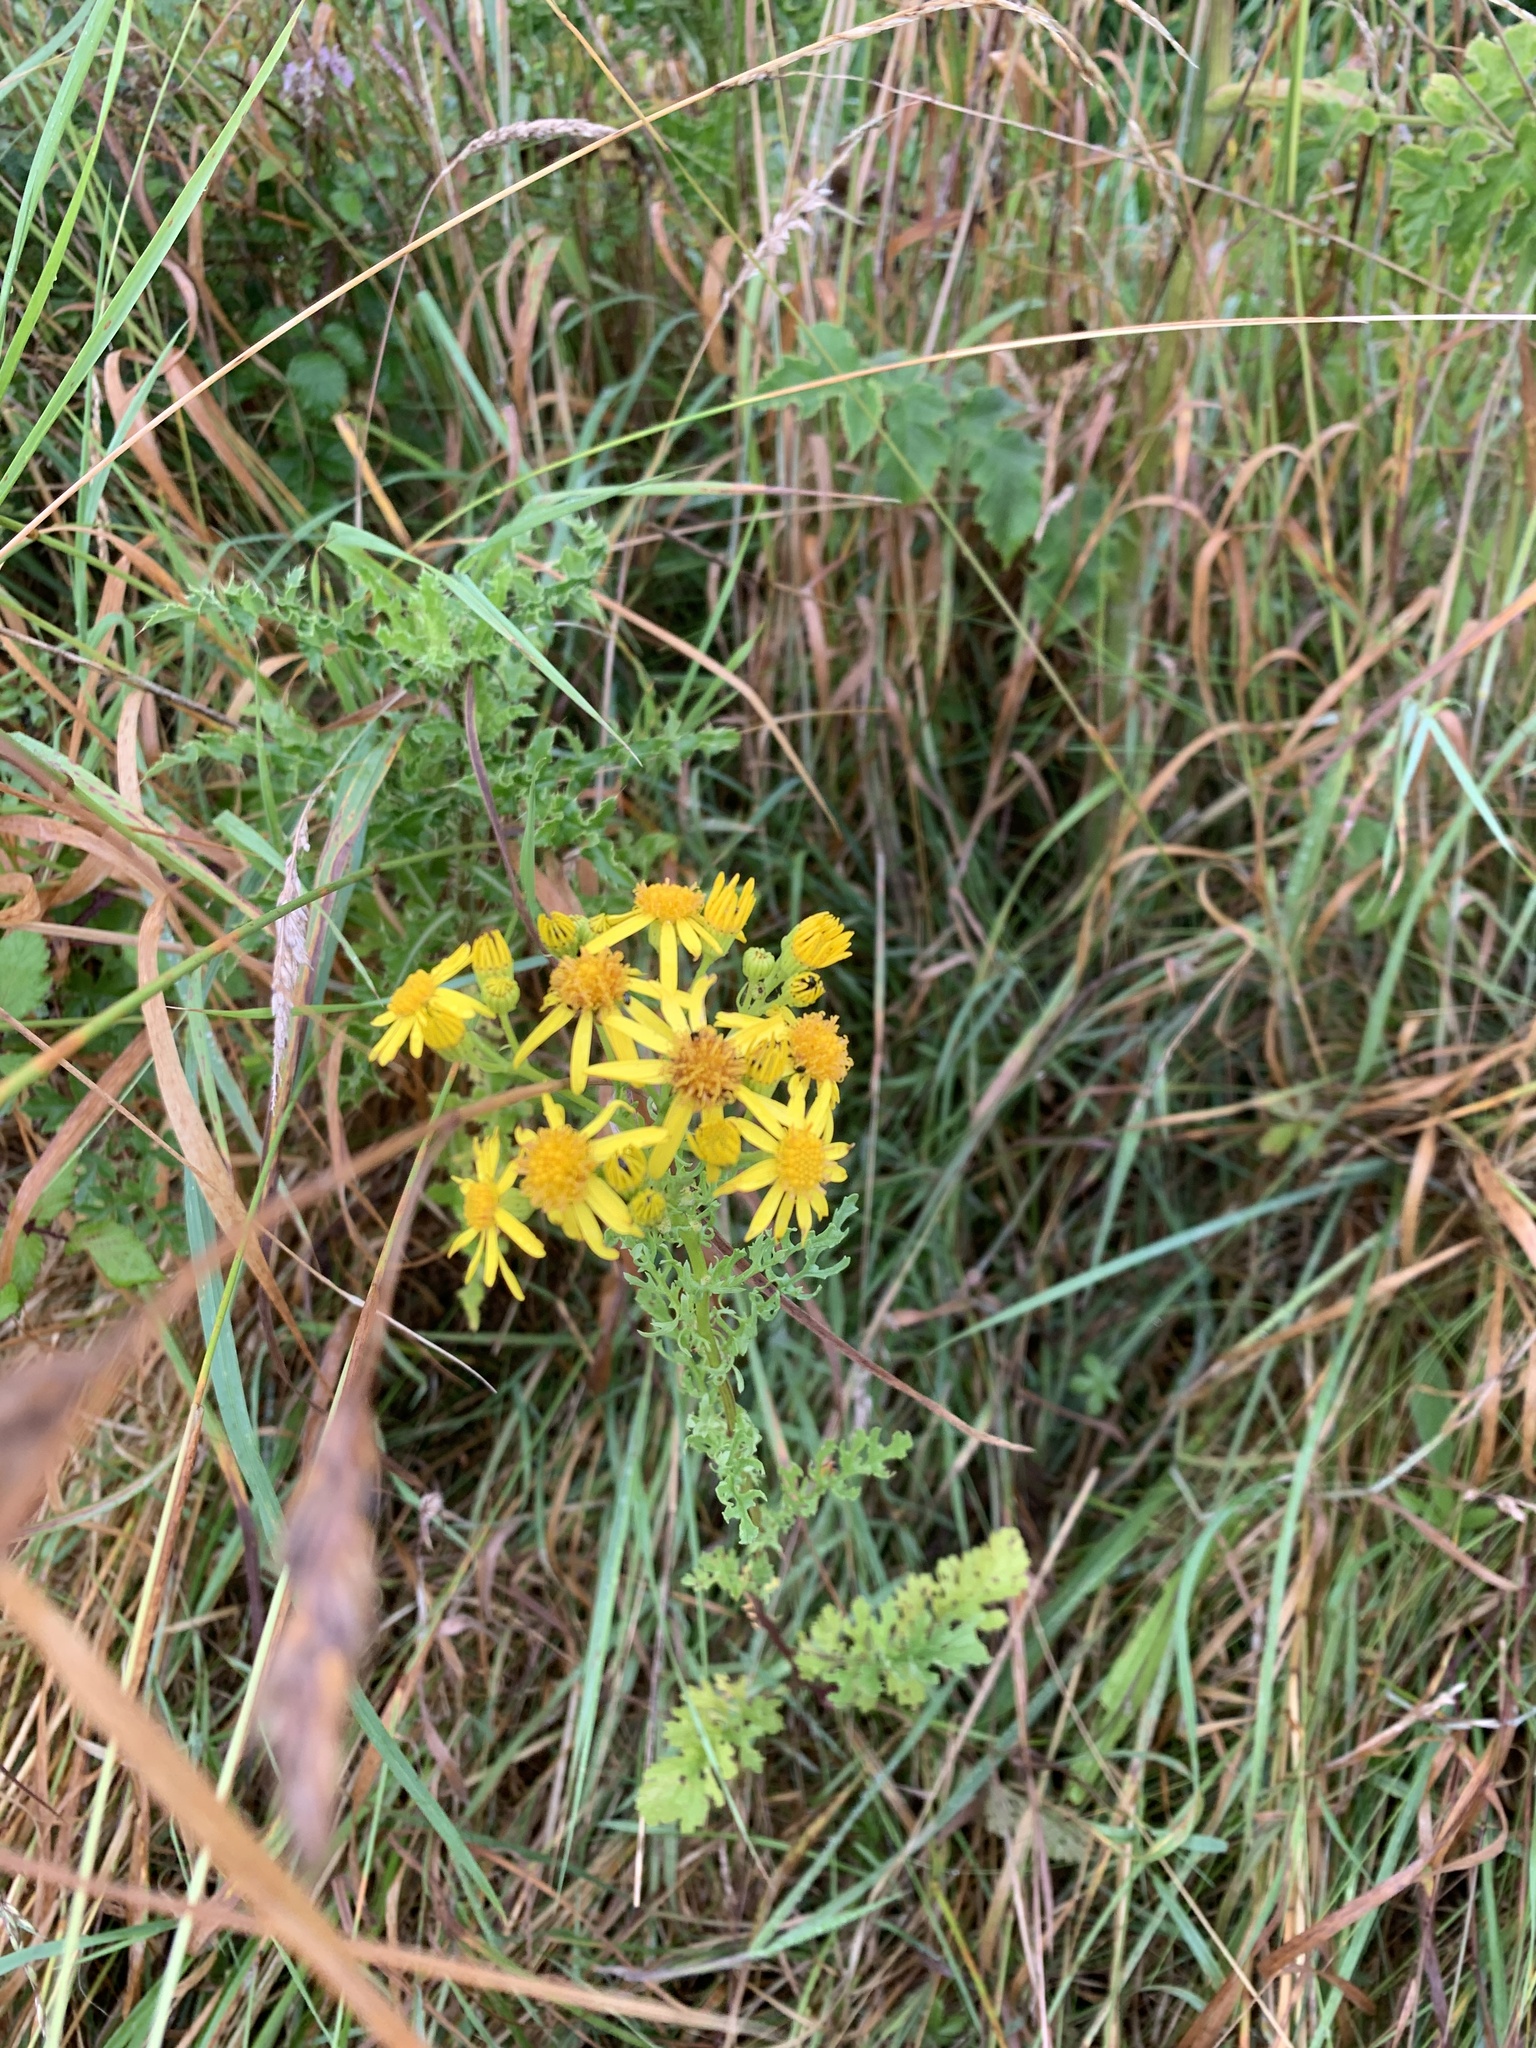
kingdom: Plantae
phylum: Tracheophyta
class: Magnoliopsida
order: Asterales
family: Asteraceae
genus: Jacobaea
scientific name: Jacobaea vulgaris
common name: Stinking willie
